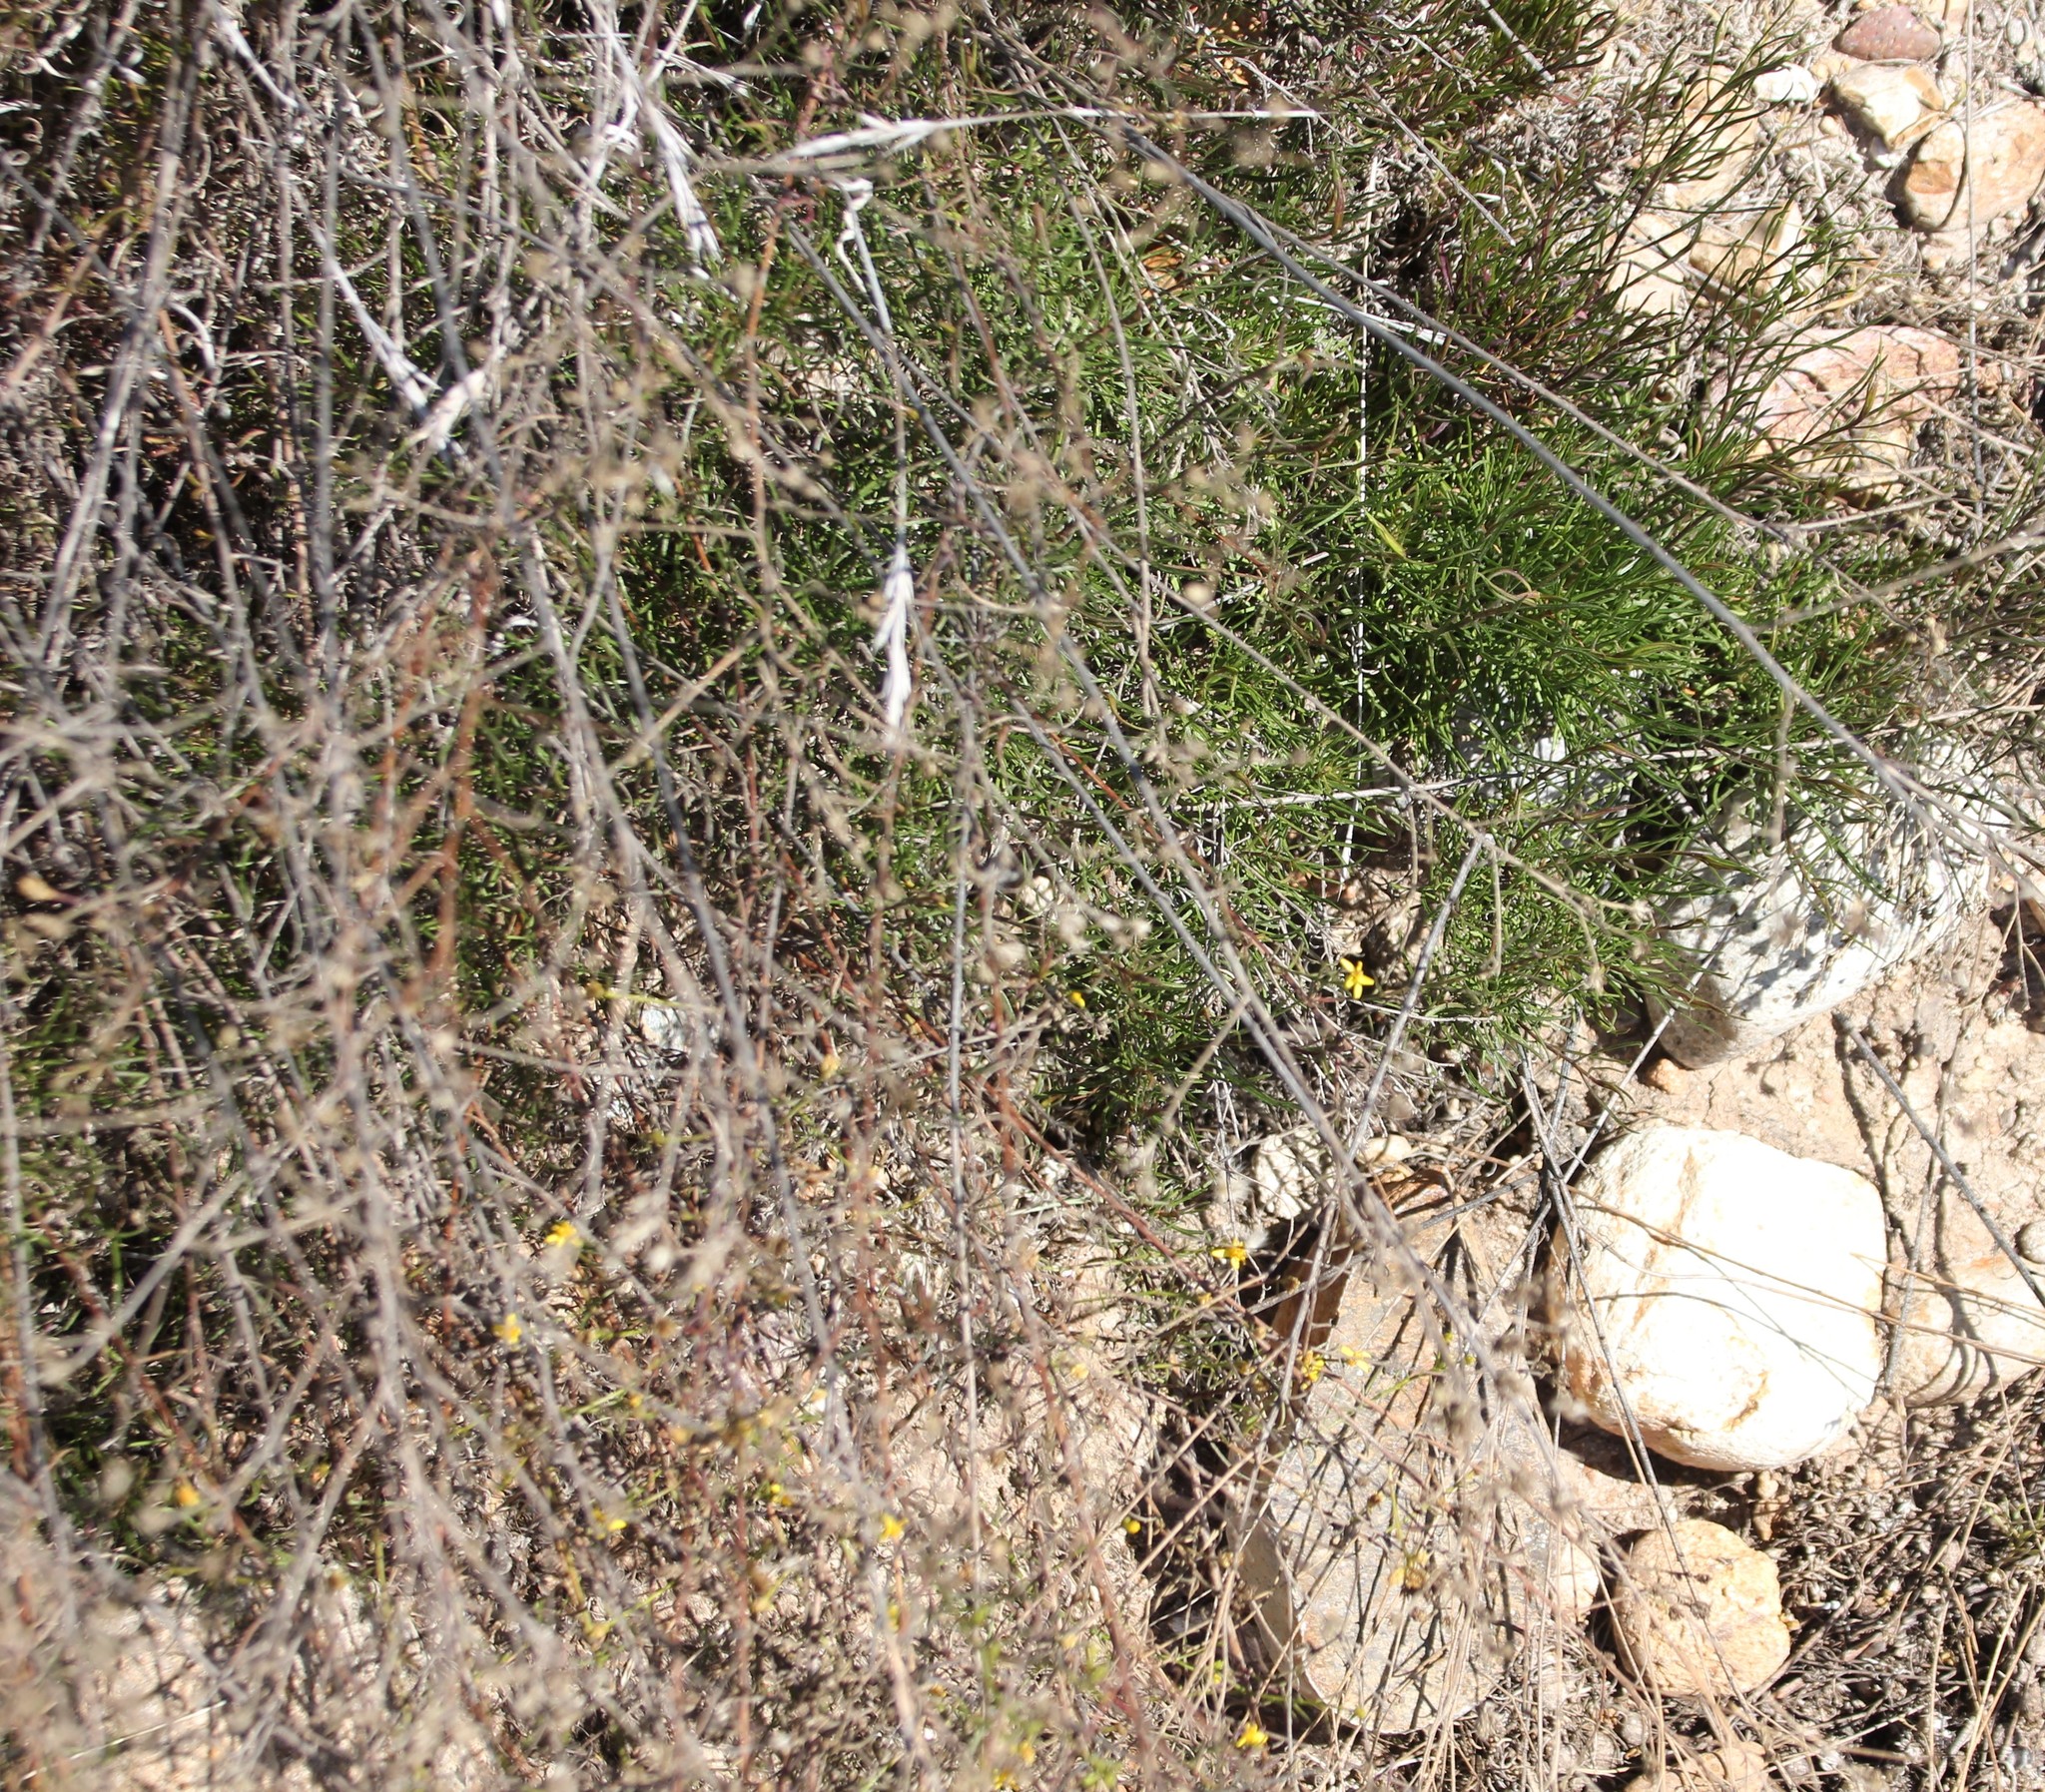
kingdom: Plantae
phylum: Tracheophyta
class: Magnoliopsida
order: Asterales
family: Asteraceae
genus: Gutierrezia
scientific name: Gutierrezia sarothrae
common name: Broom snakeweed
